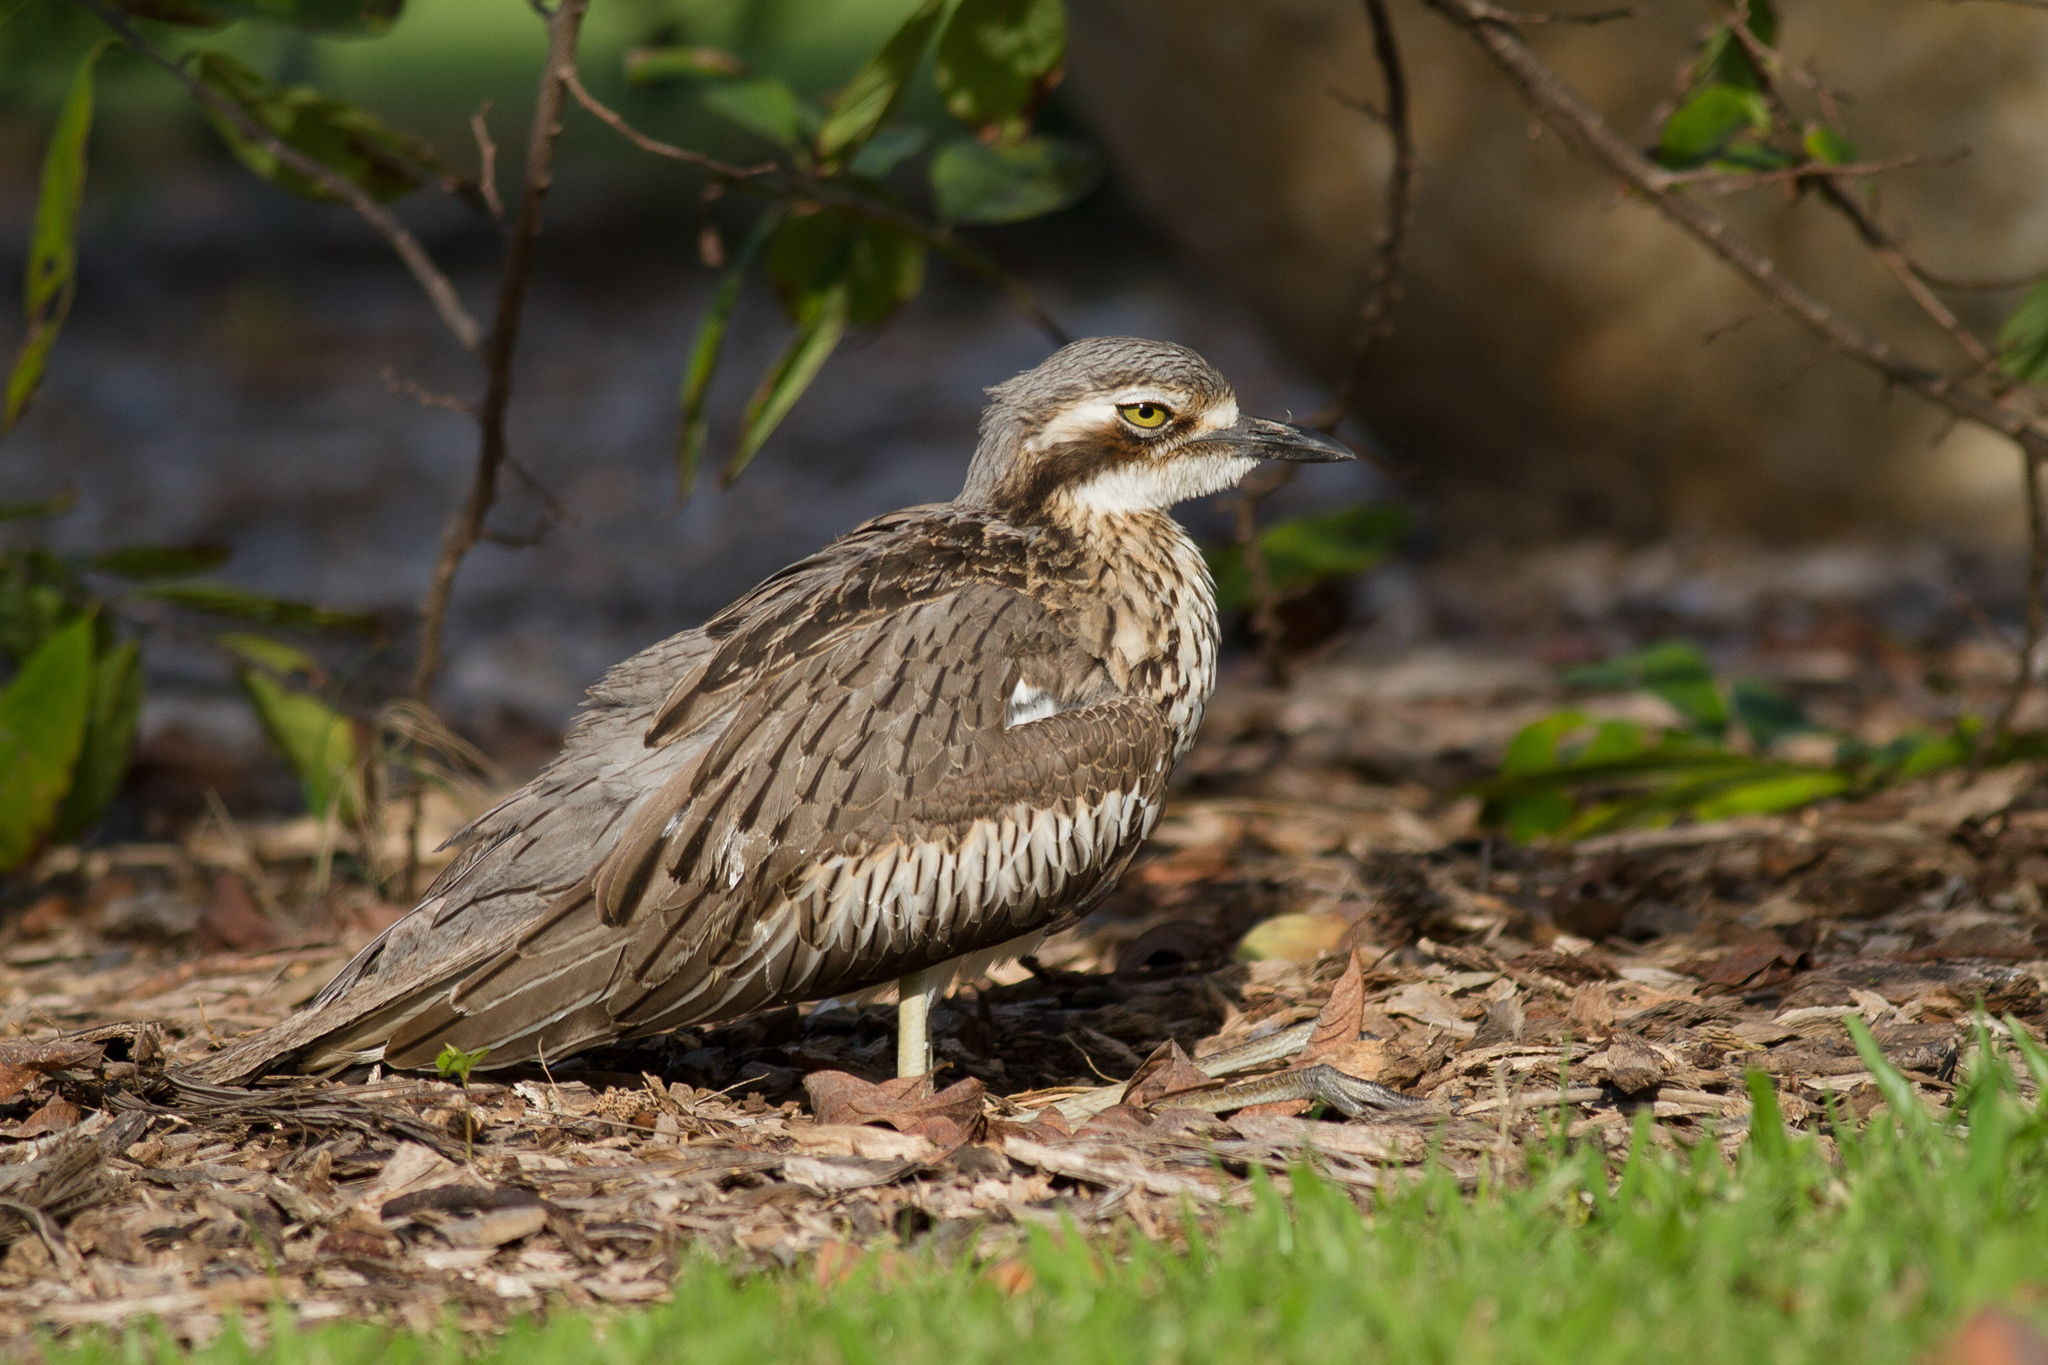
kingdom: Animalia
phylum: Chordata
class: Aves
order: Charadriiformes
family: Burhinidae
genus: Burhinus
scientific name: Burhinus grallarius
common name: Bush stone-curlew
